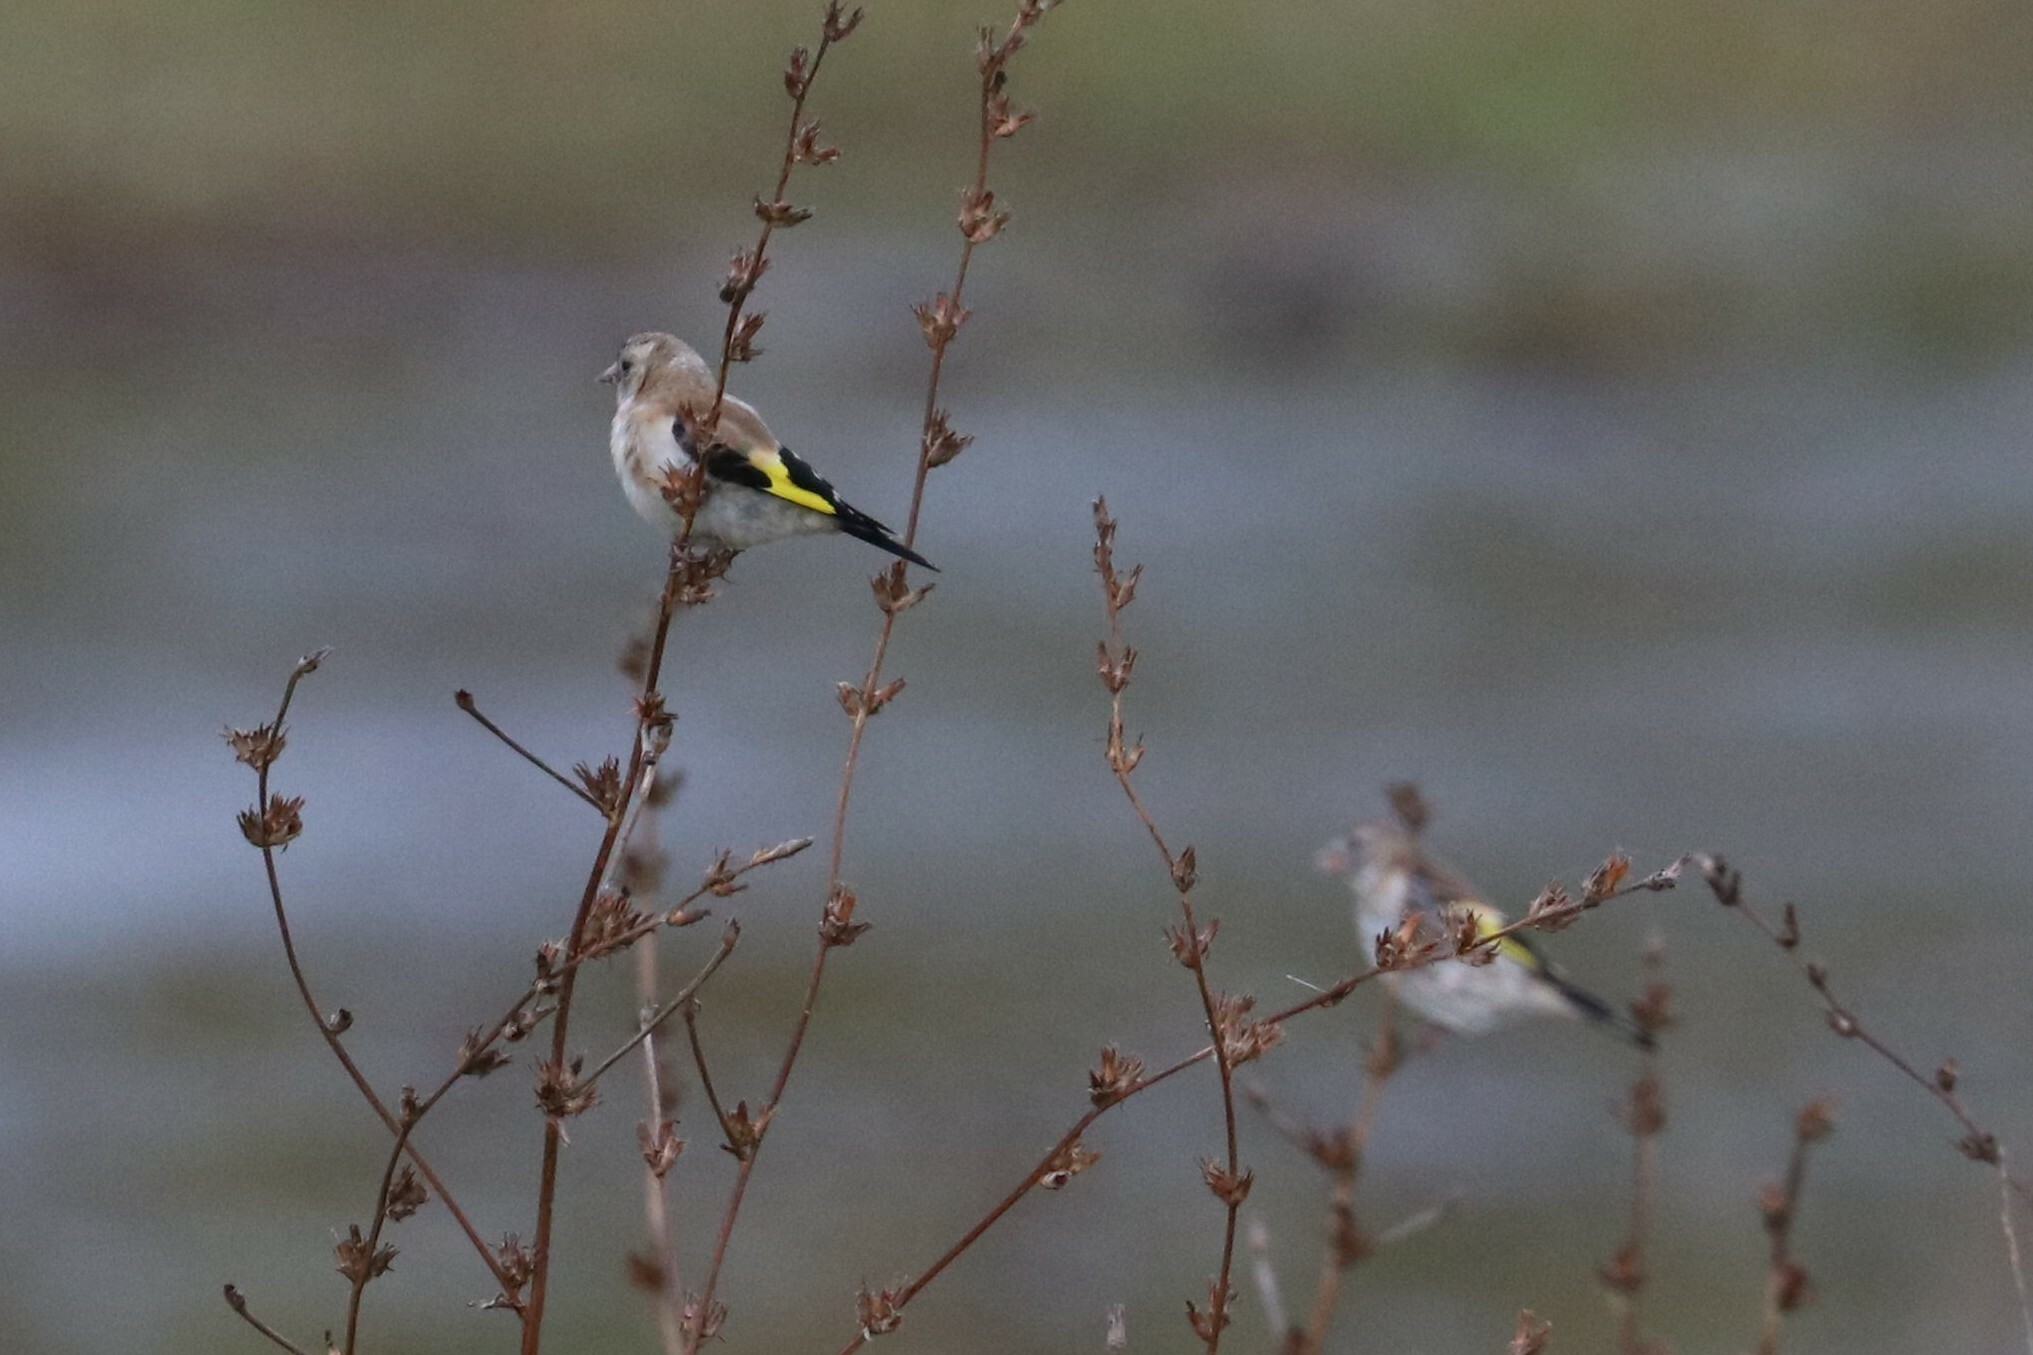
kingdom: Animalia
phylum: Chordata
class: Aves
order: Passeriformes
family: Fringillidae
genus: Carduelis
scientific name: Carduelis carduelis
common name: European goldfinch
